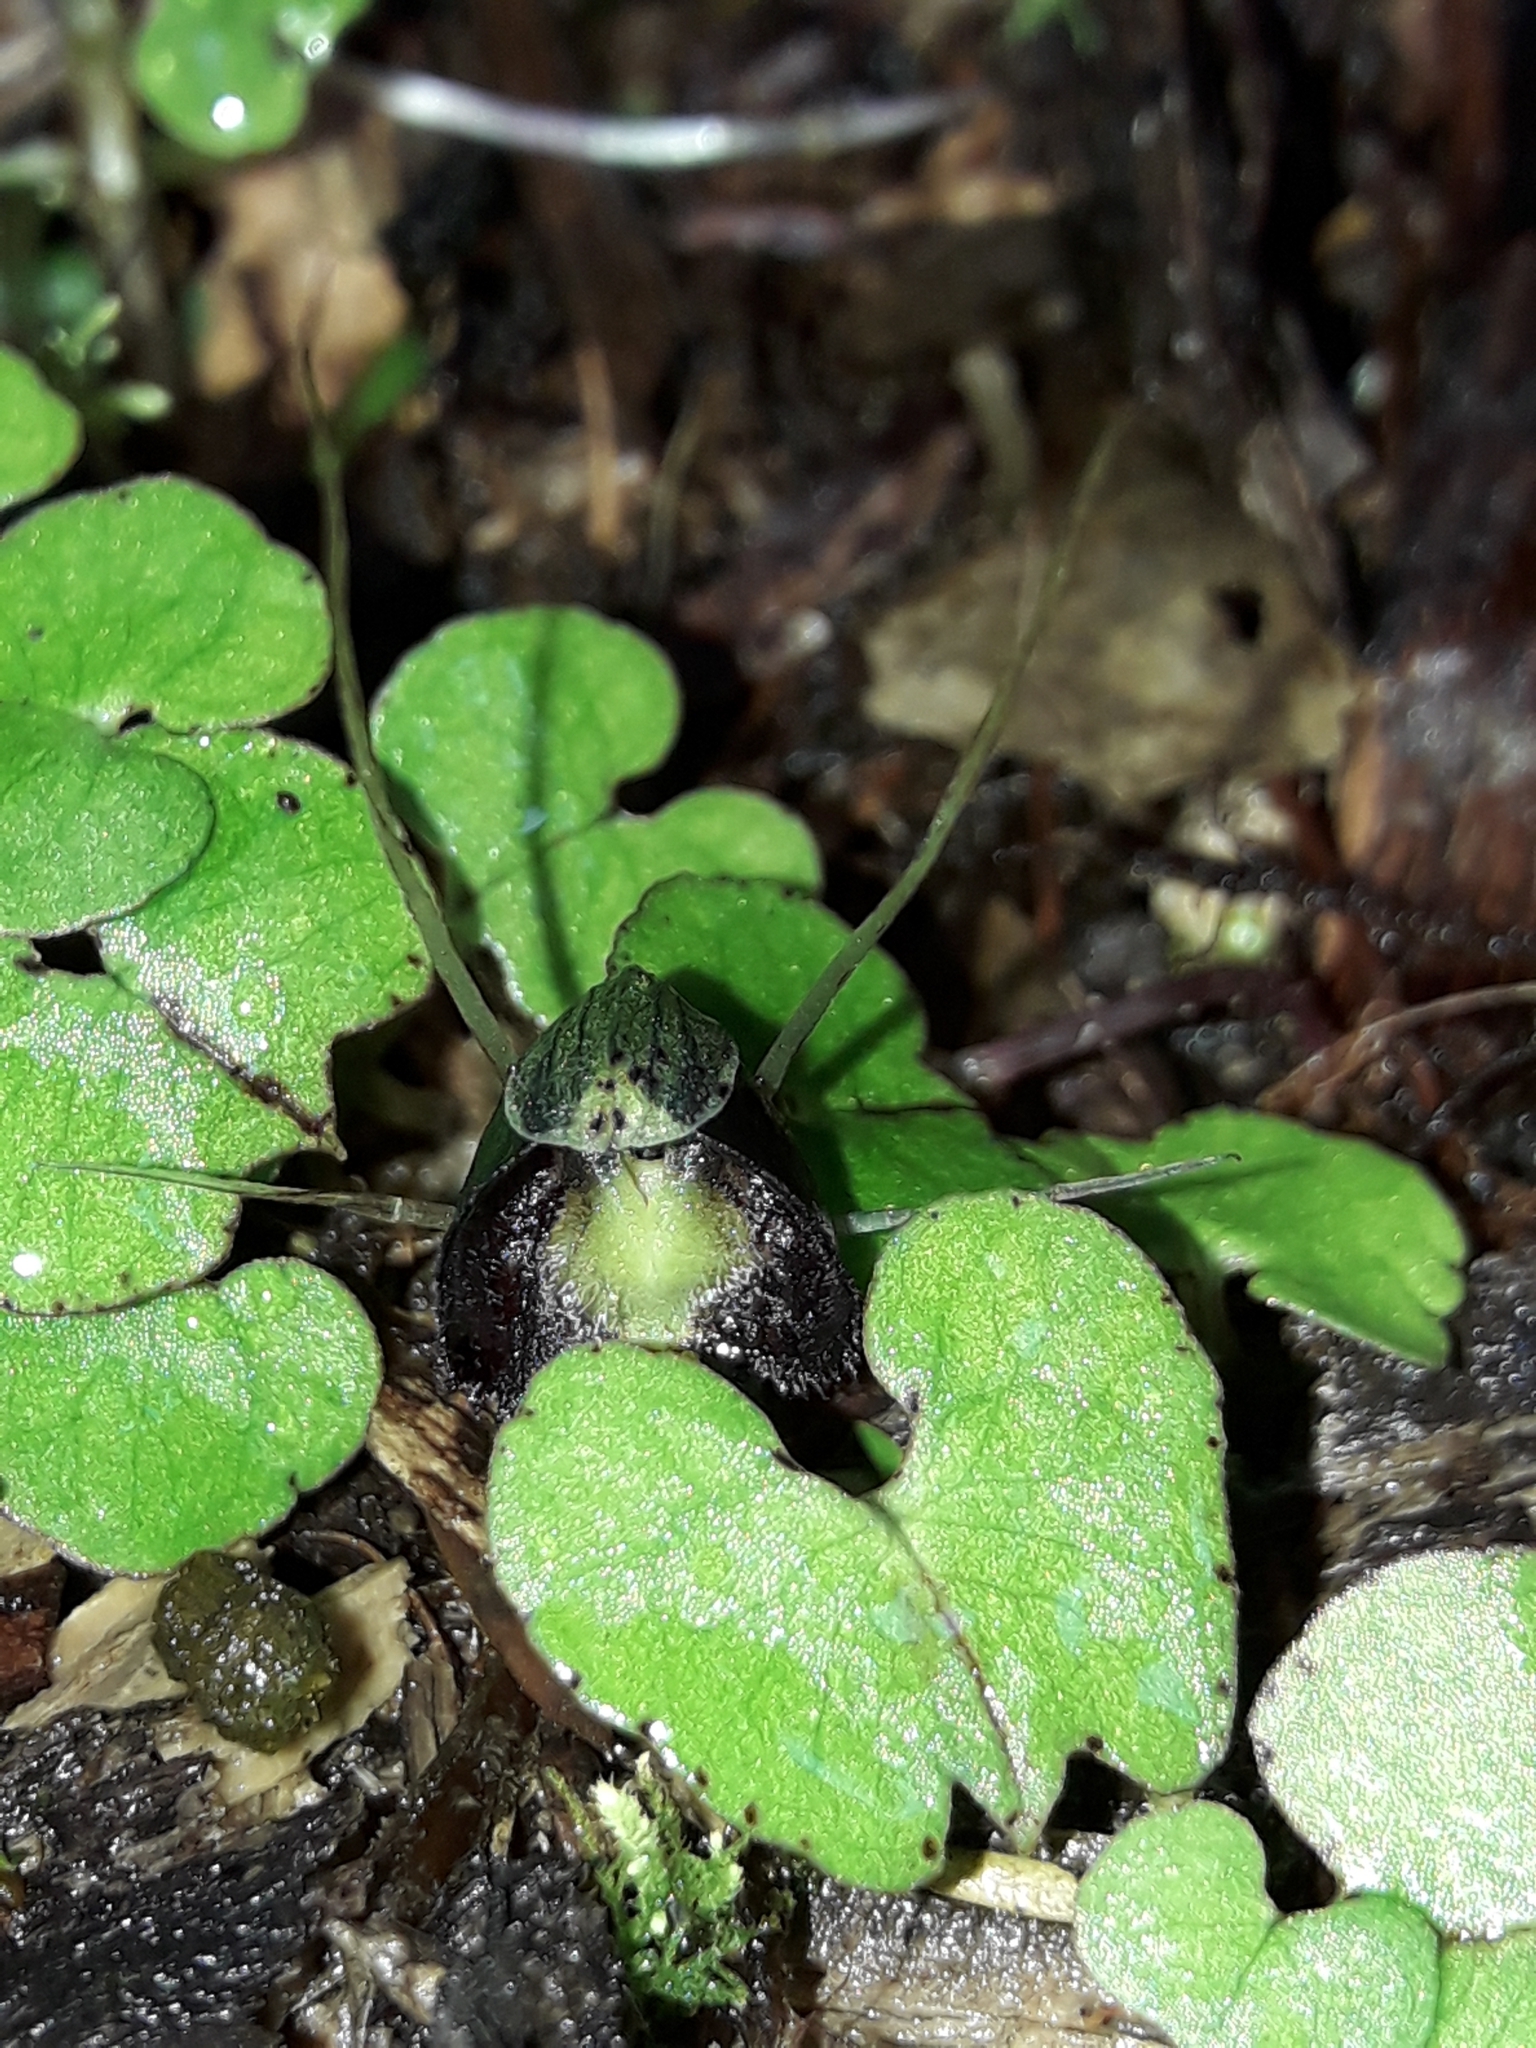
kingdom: Plantae
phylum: Tracheophyta
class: Liliopsida
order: Asparagales
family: Orchidaceae
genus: Corybas
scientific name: Corybas trilobus
